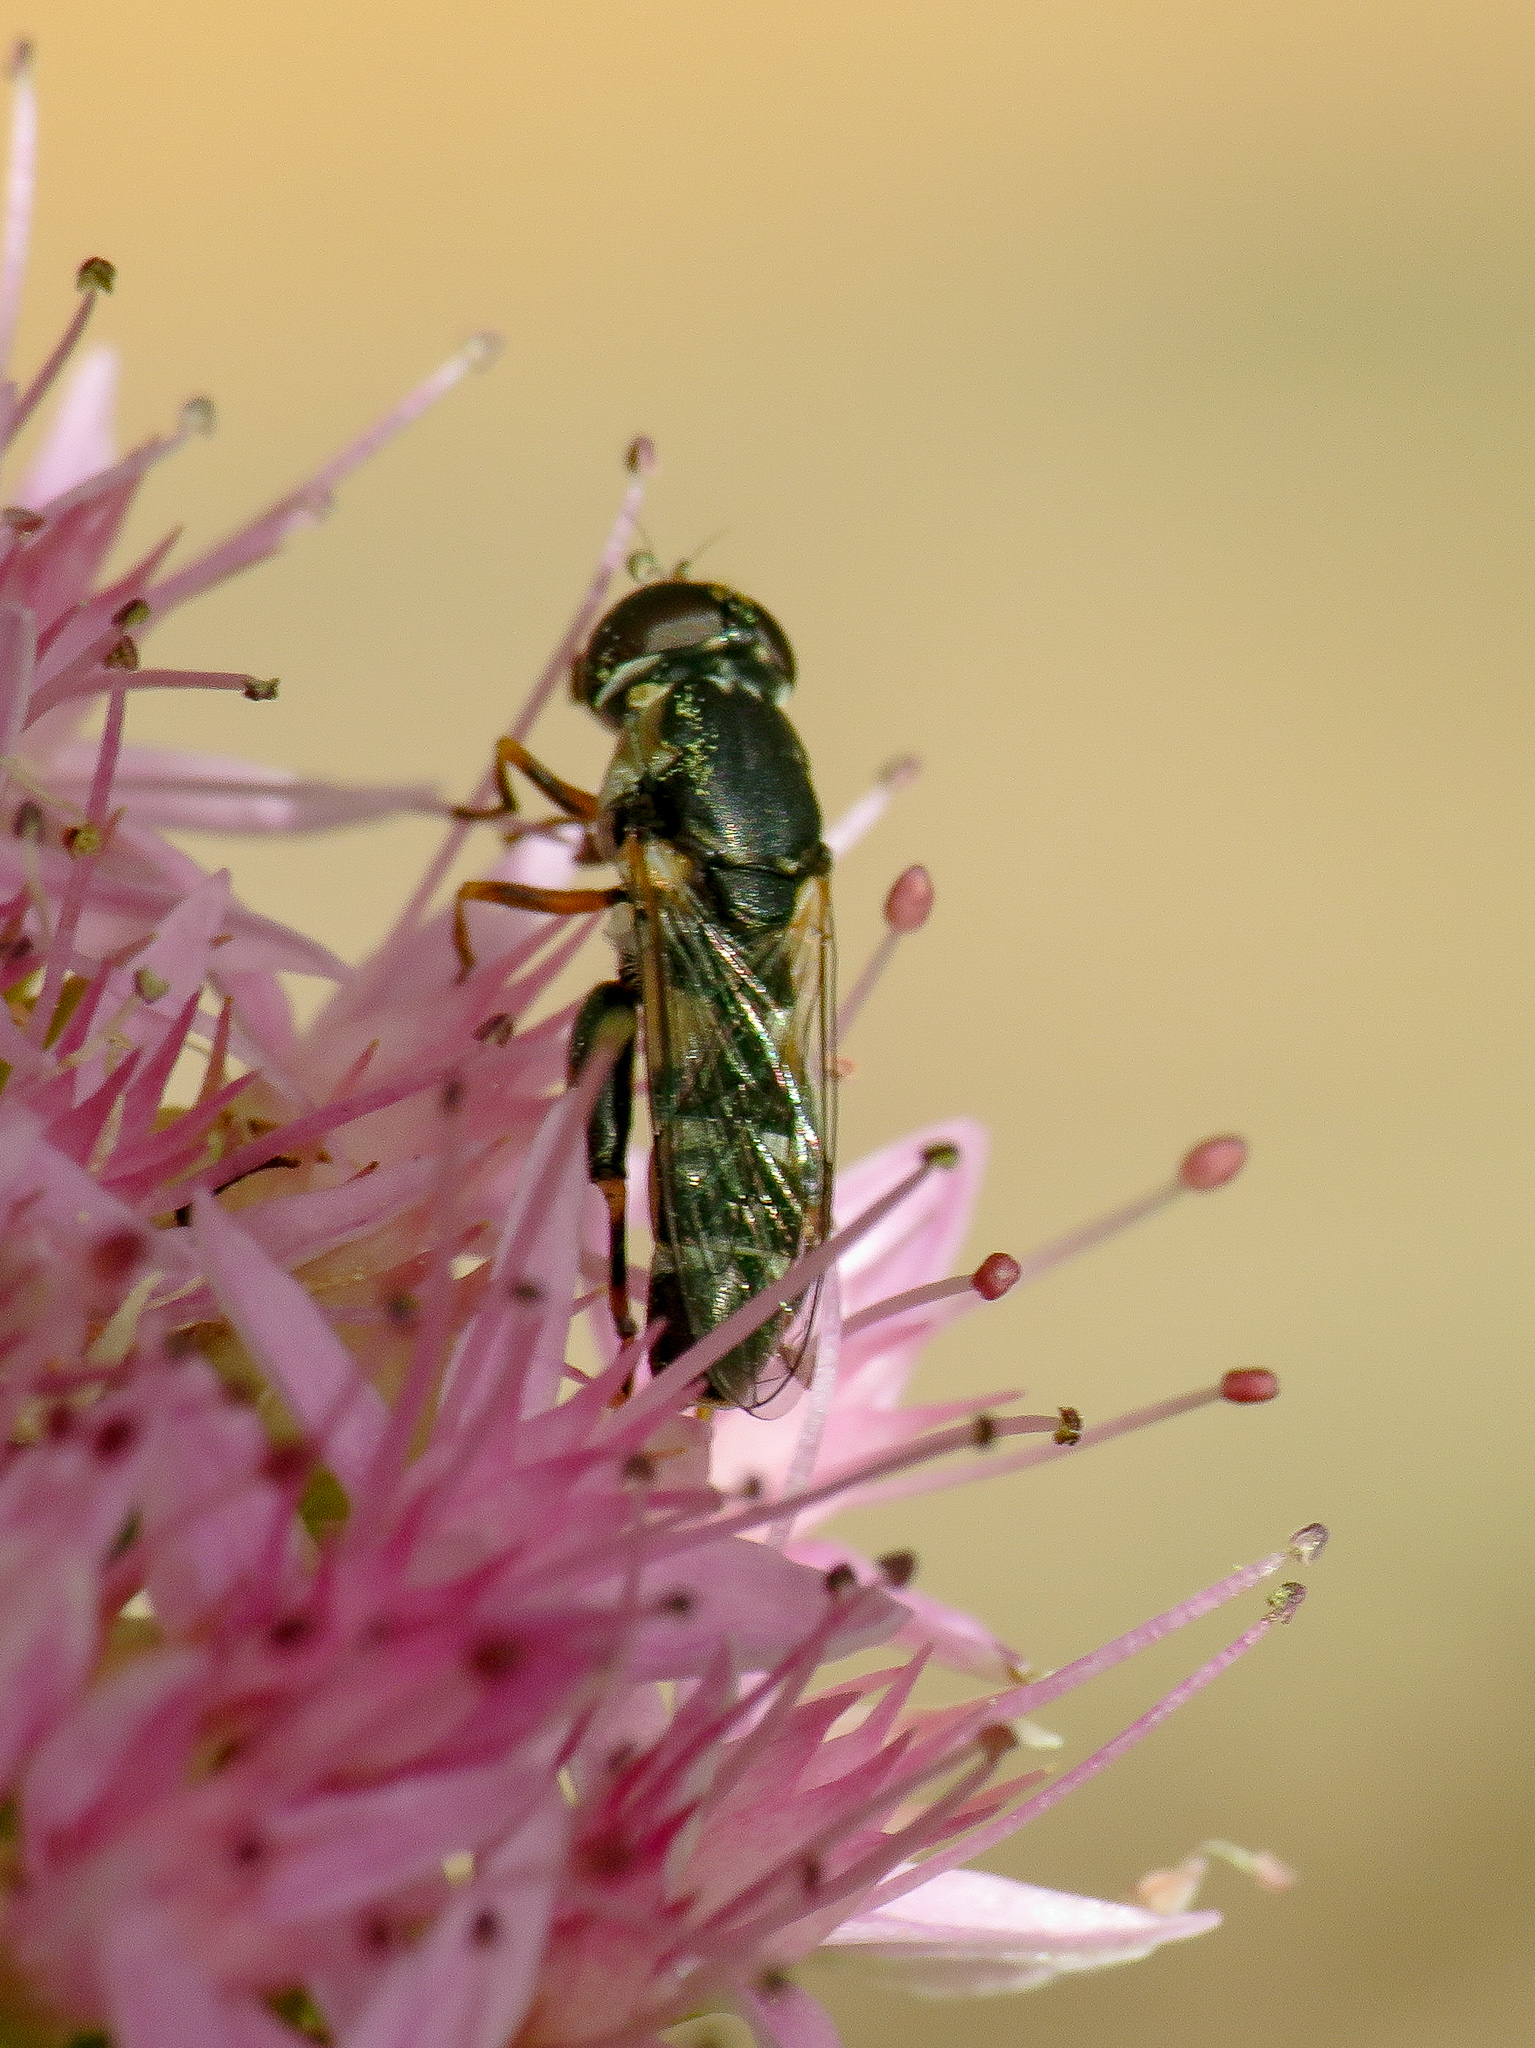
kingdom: Animalia
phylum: Arthropoda
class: Insecta
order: Diptera
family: Syrphidae
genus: Syritta
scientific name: Syritta pipiens
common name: Hover fly
